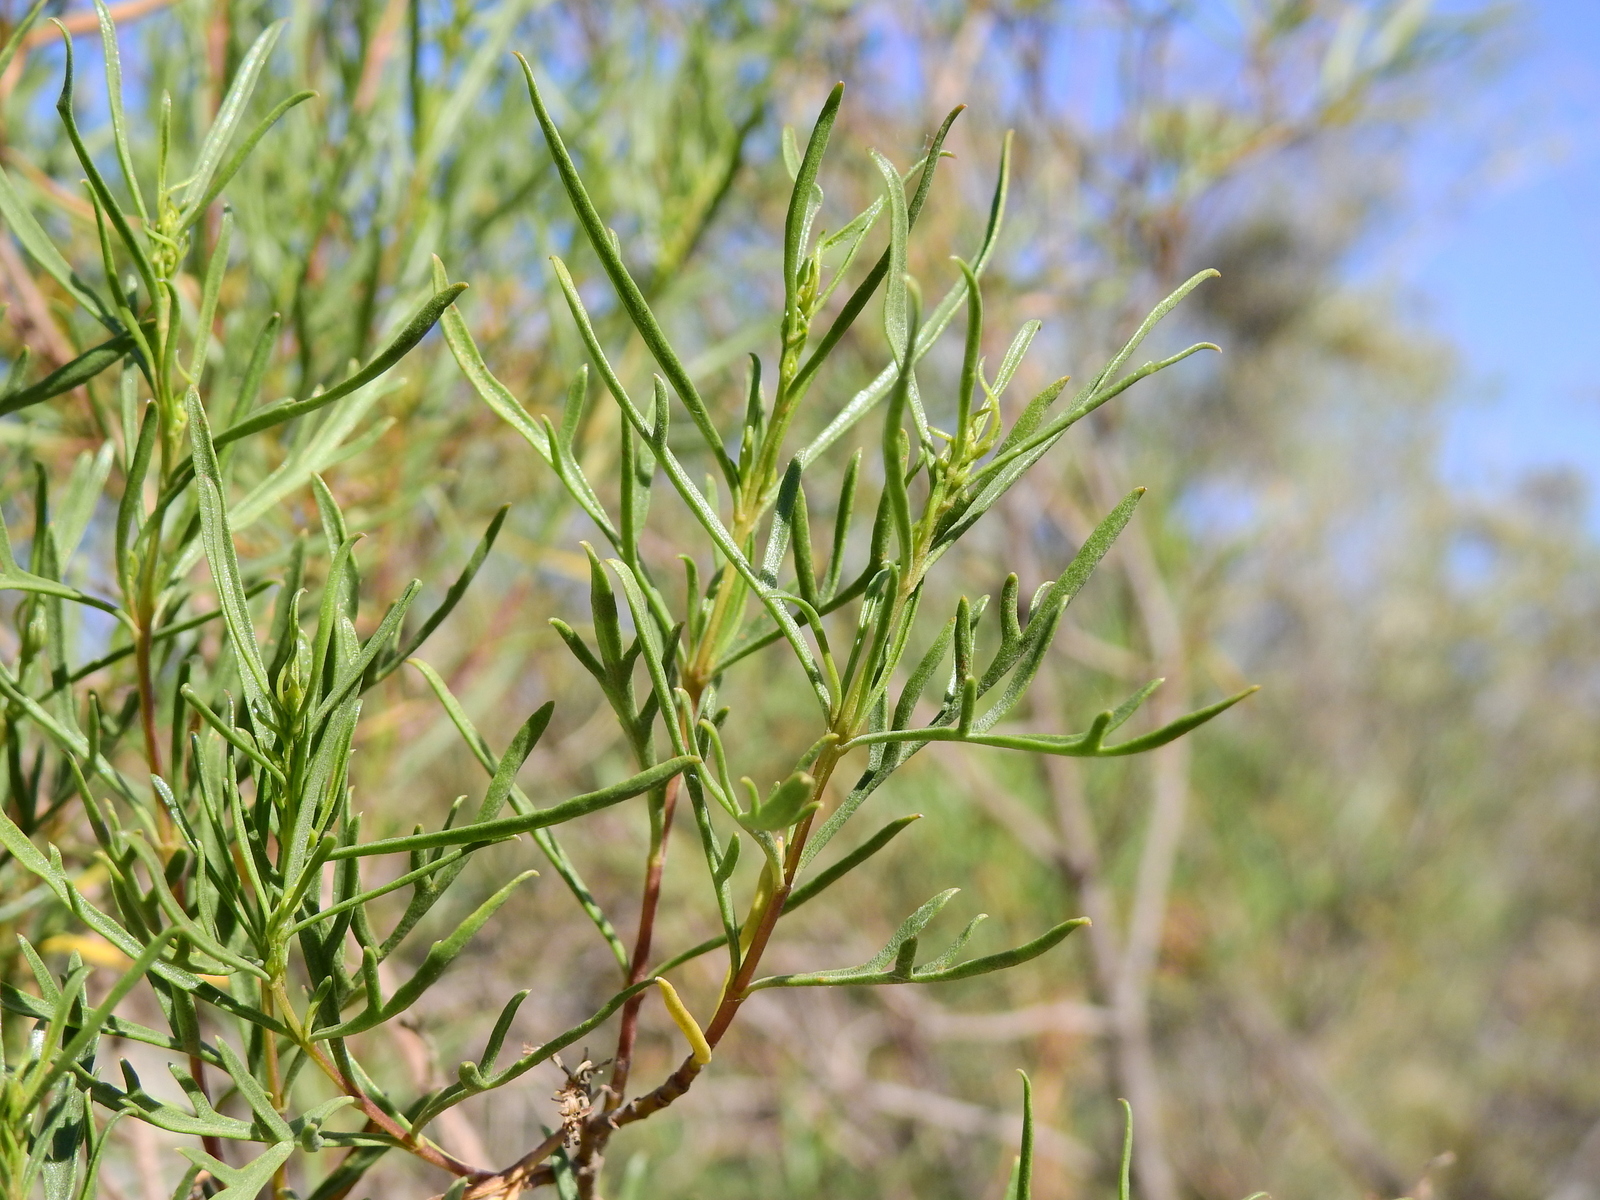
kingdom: Plantae
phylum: Tracheophyta
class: Magnoliopsida
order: Asterales
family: Asteraceae
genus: Acanthostyles
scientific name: Acanthostyles buniifolius
